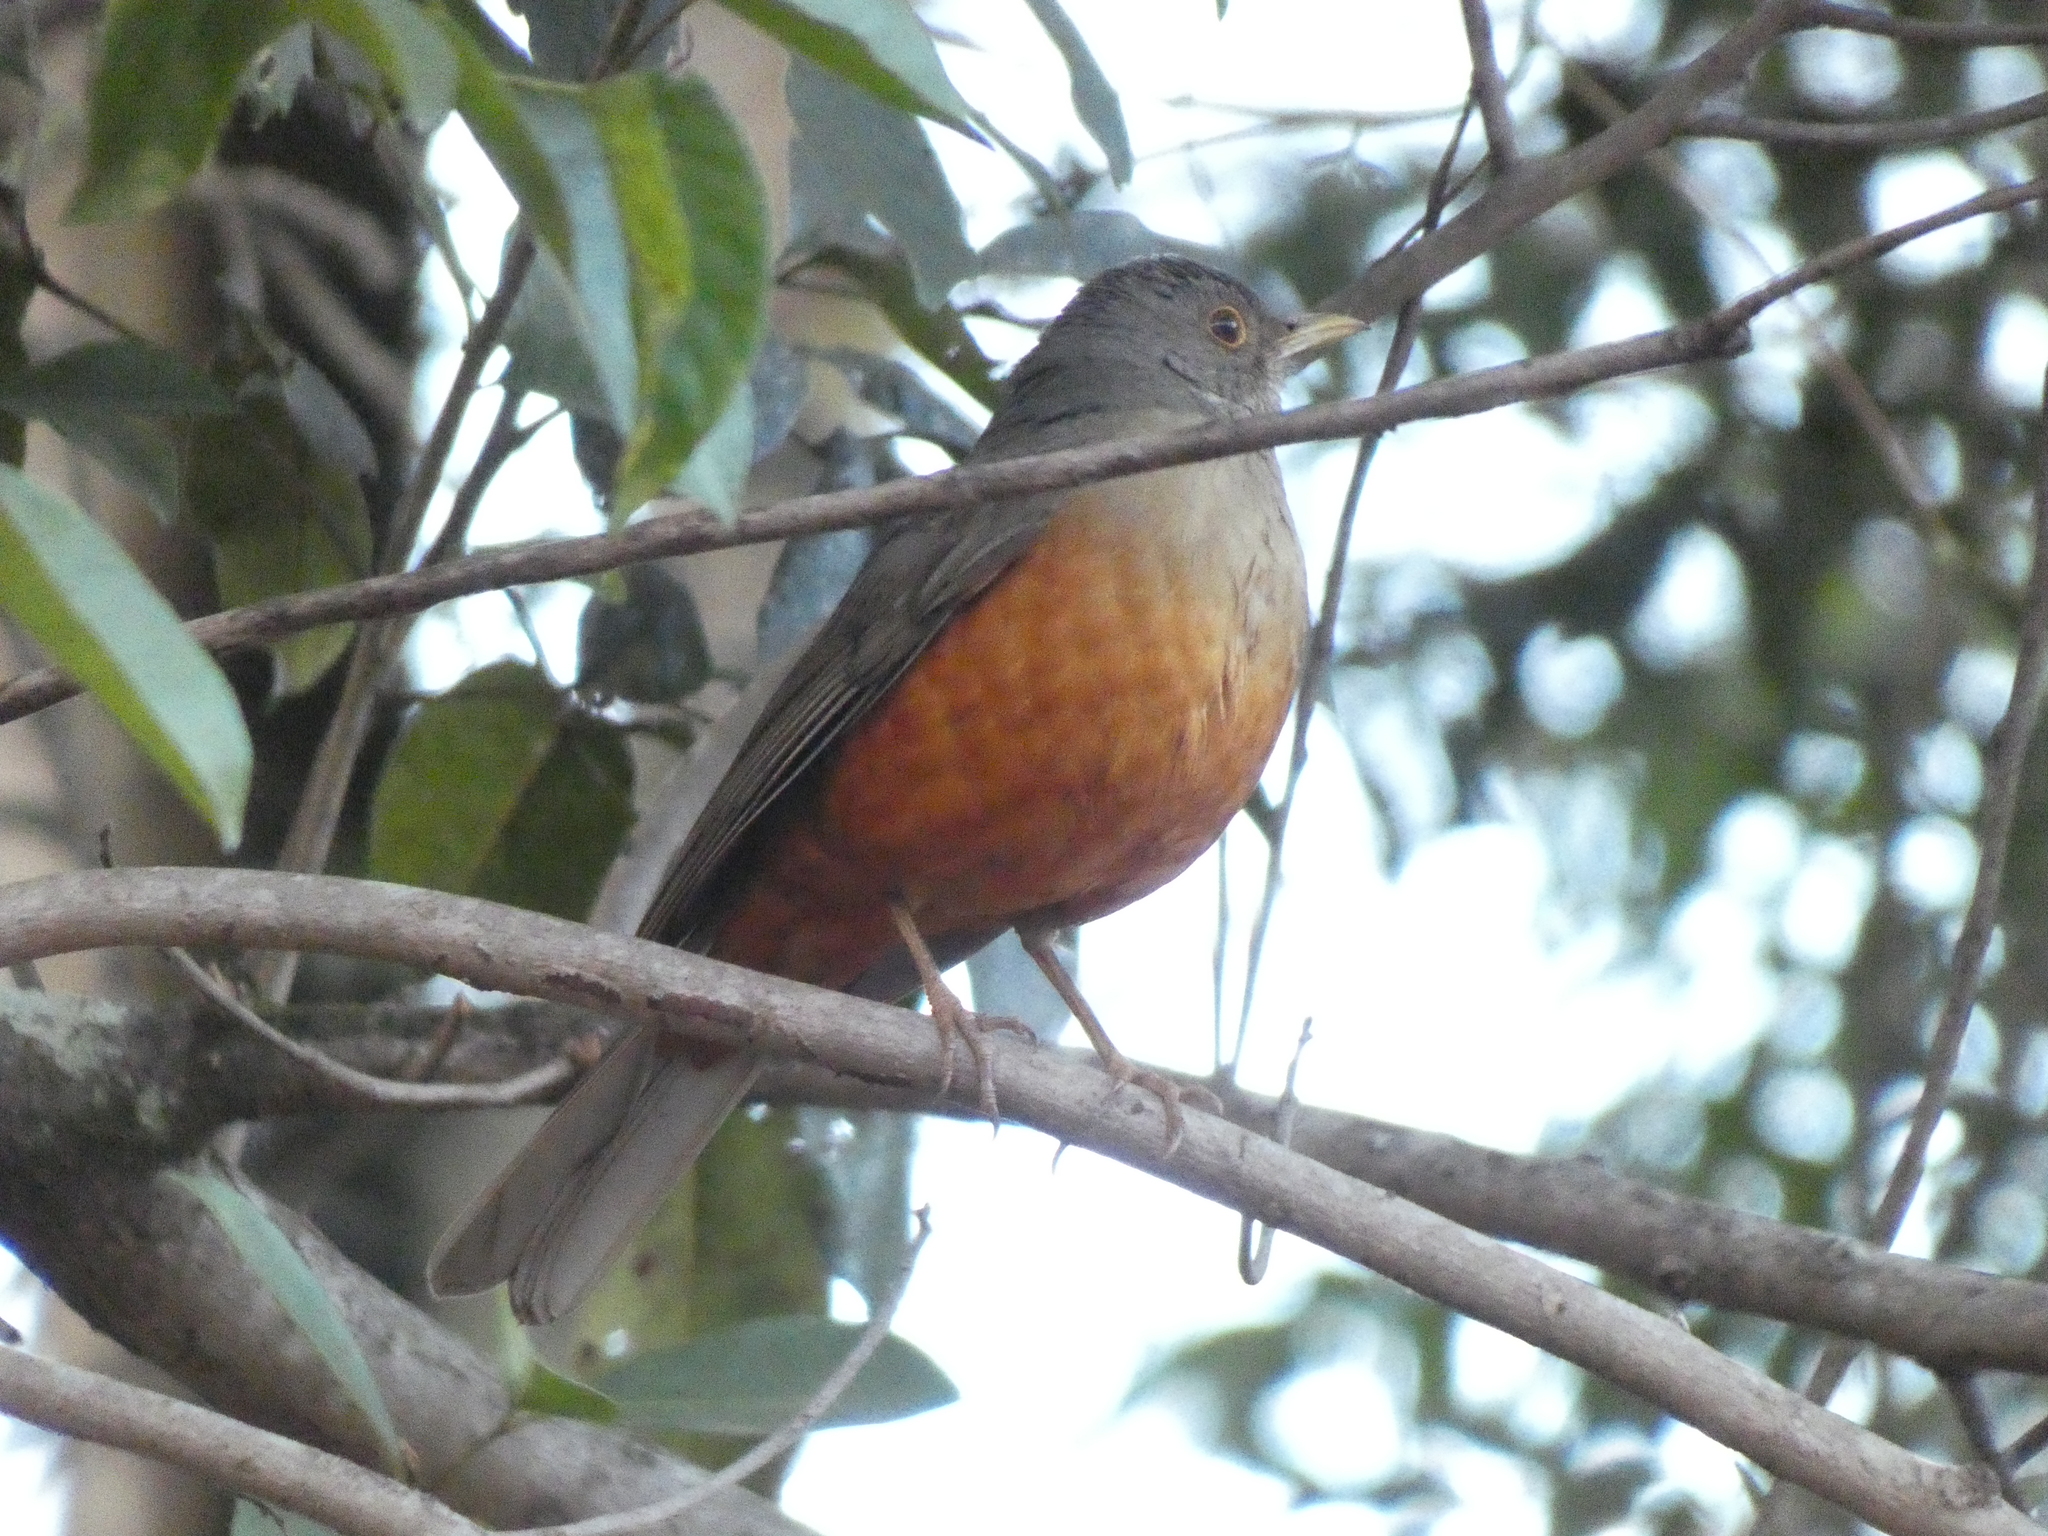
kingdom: Animalia
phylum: Chordata
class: Aves
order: Passeriformes
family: Turdidae
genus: Turdus
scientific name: Turdus rufiventris
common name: Rufous-bellied thrush
